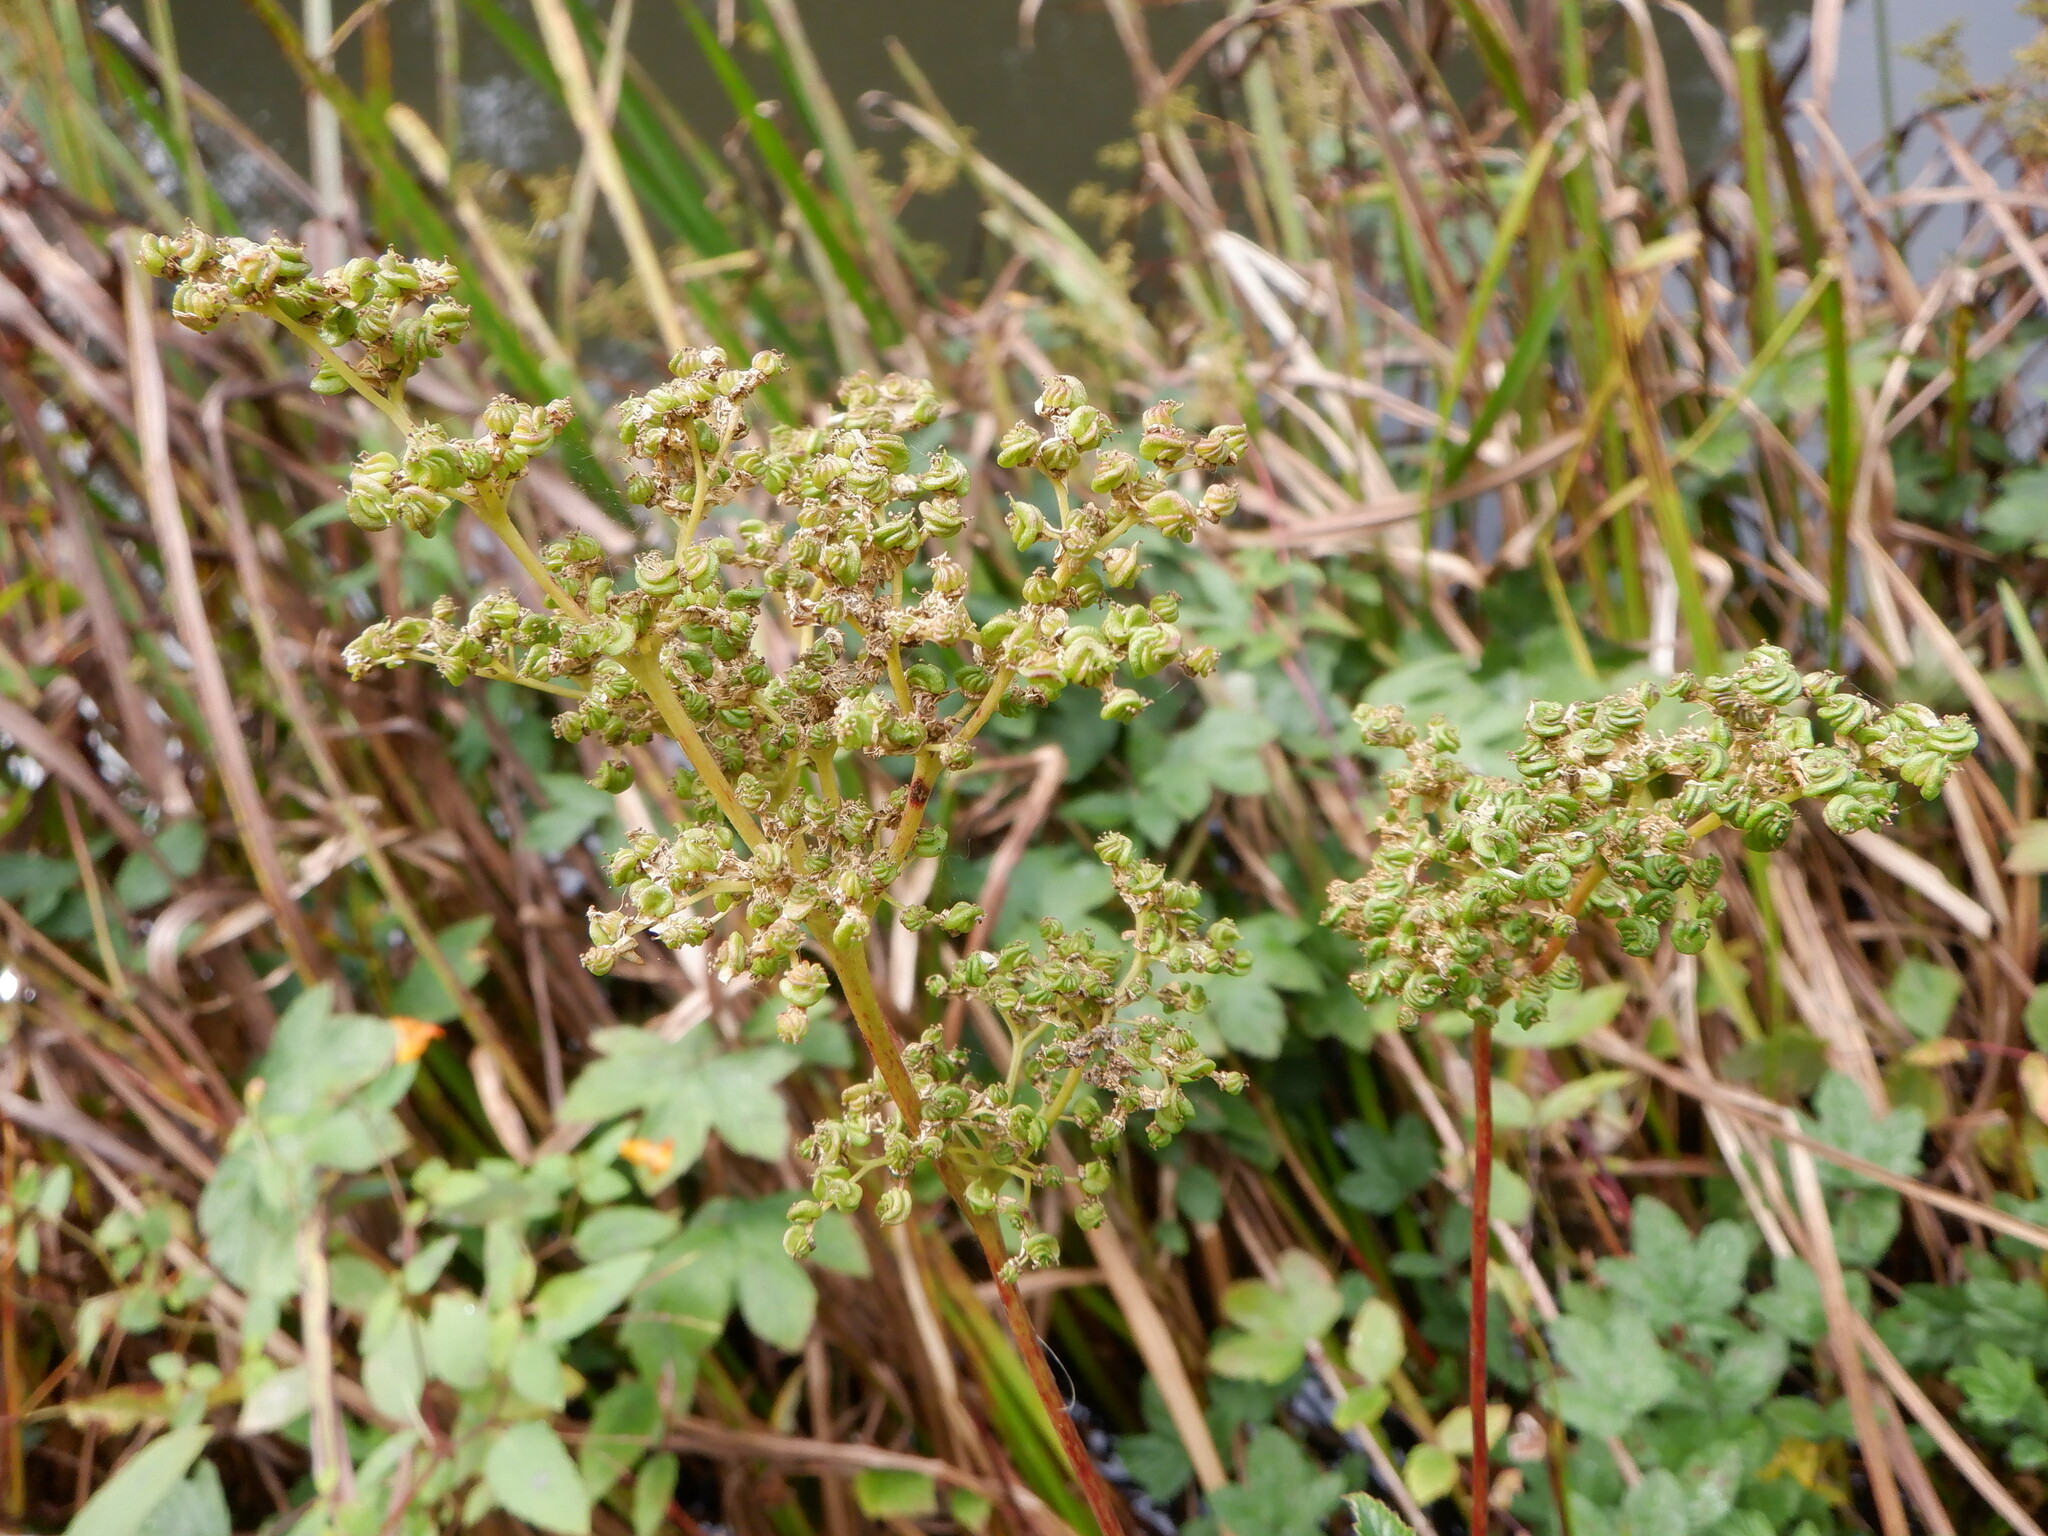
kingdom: Plantae
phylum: Tracheophyta
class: Magnoliopsida
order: Rosales
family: Rosaceae
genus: Filipendula
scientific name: Filipendula ulmaria
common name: Meadowsweet
